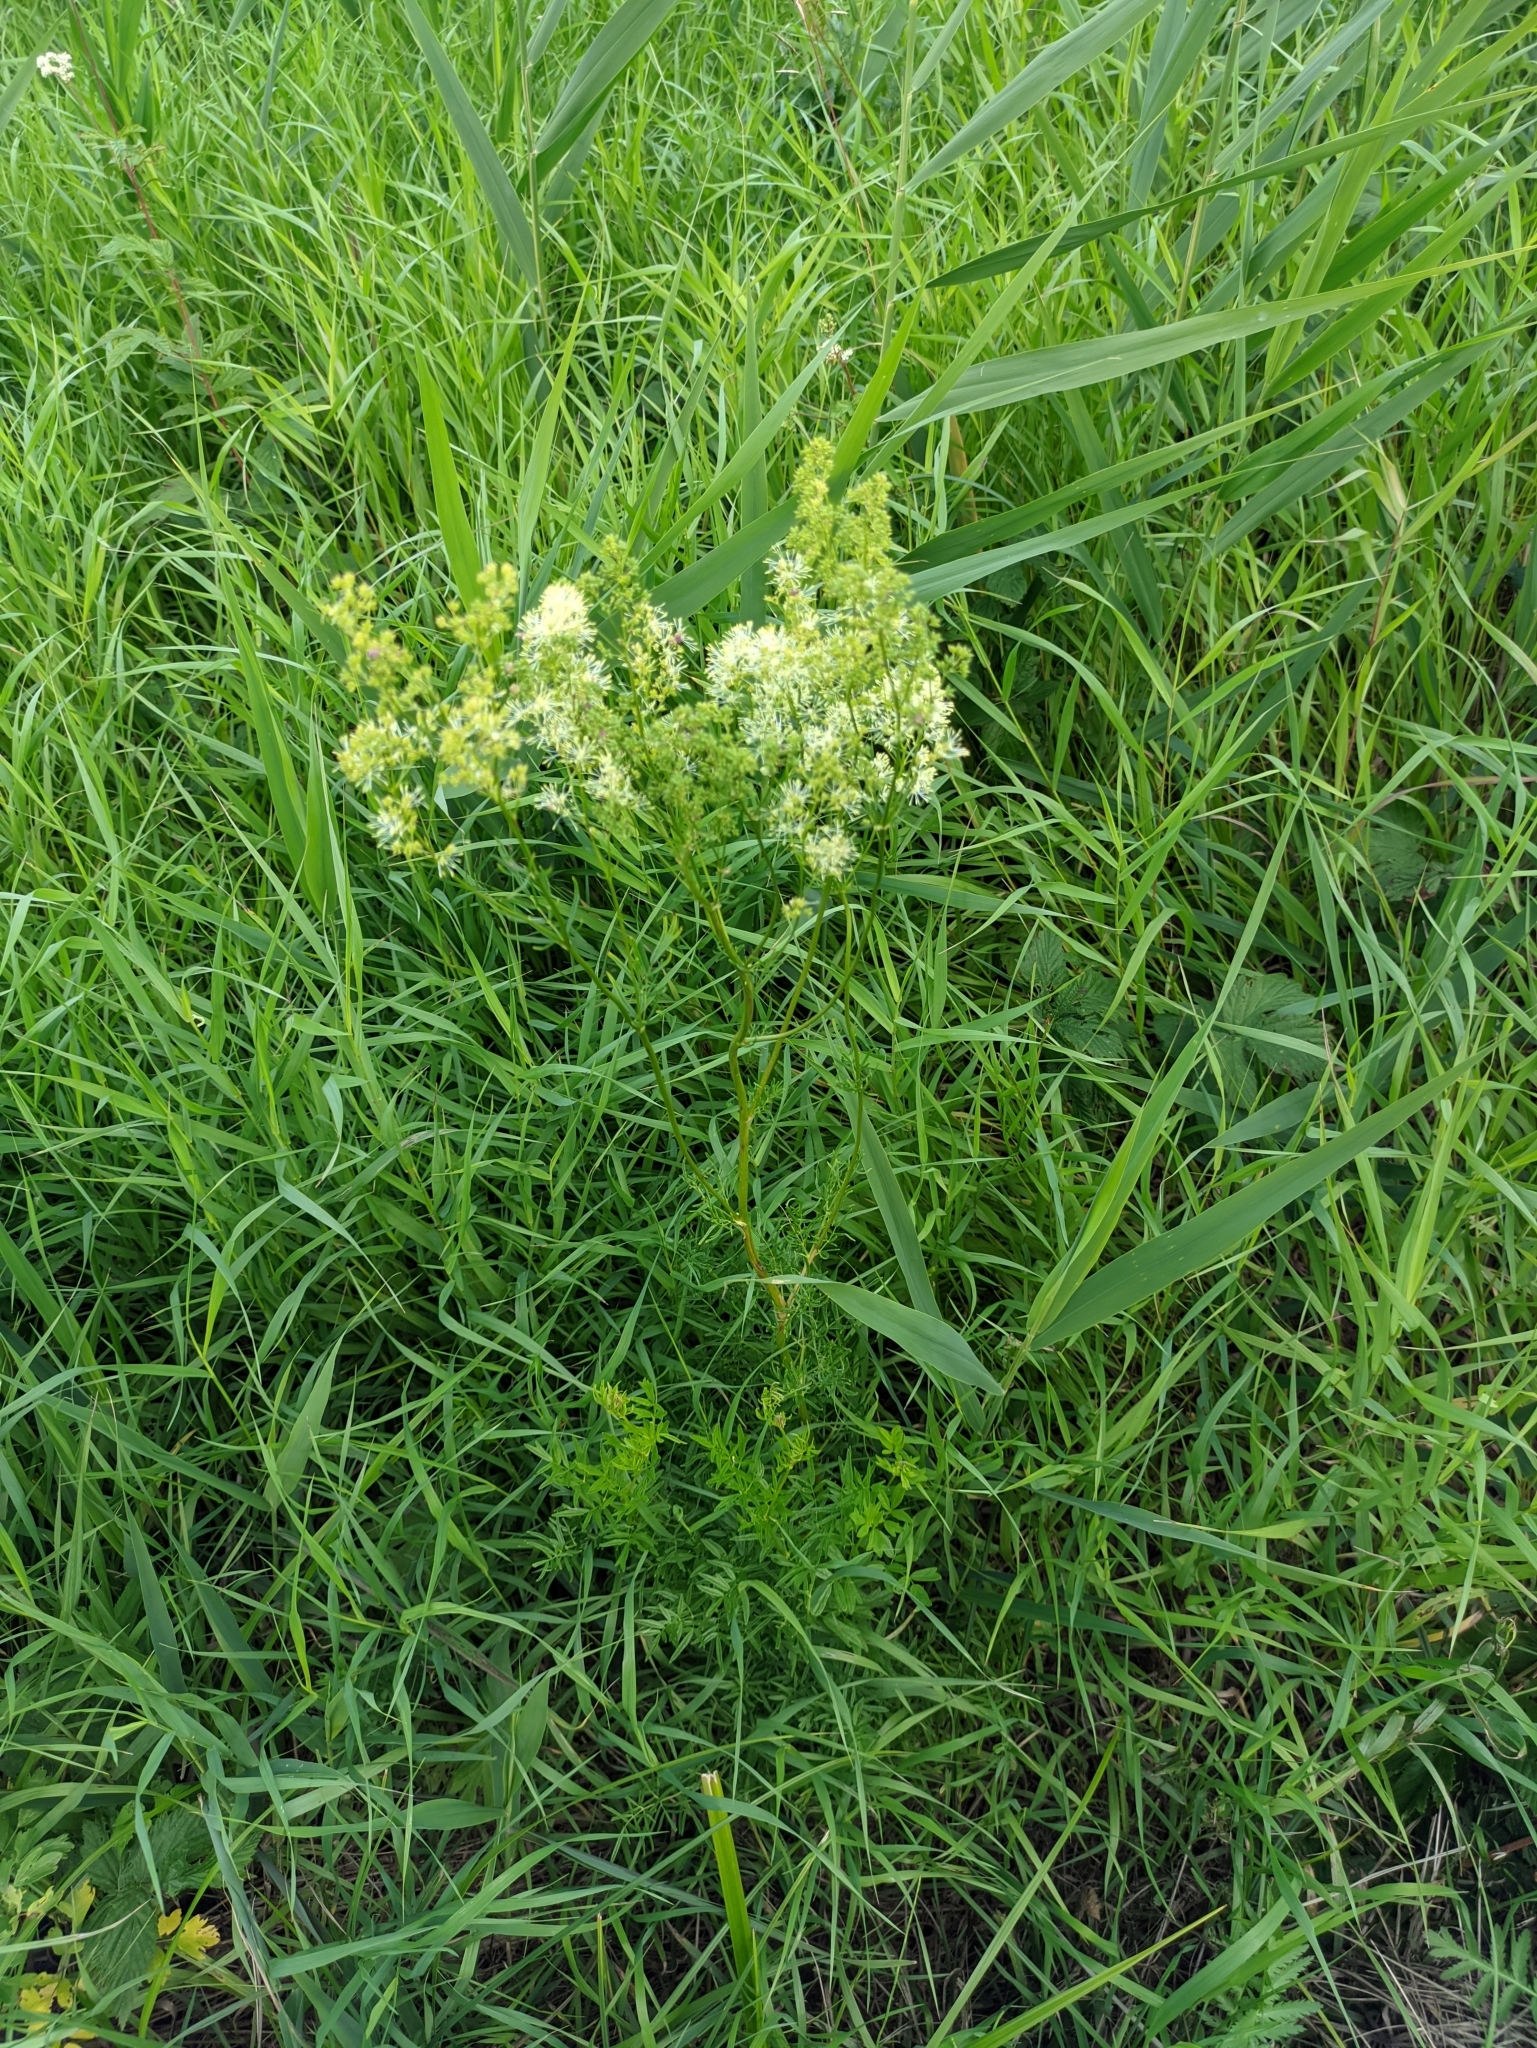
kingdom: Plantae
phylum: Tracheophyta
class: Magnoliopsida
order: Ranunculales
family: Ranunculaceae
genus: Thalictrum
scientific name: Thalictrum lucidum
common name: Shining meadow-rue
